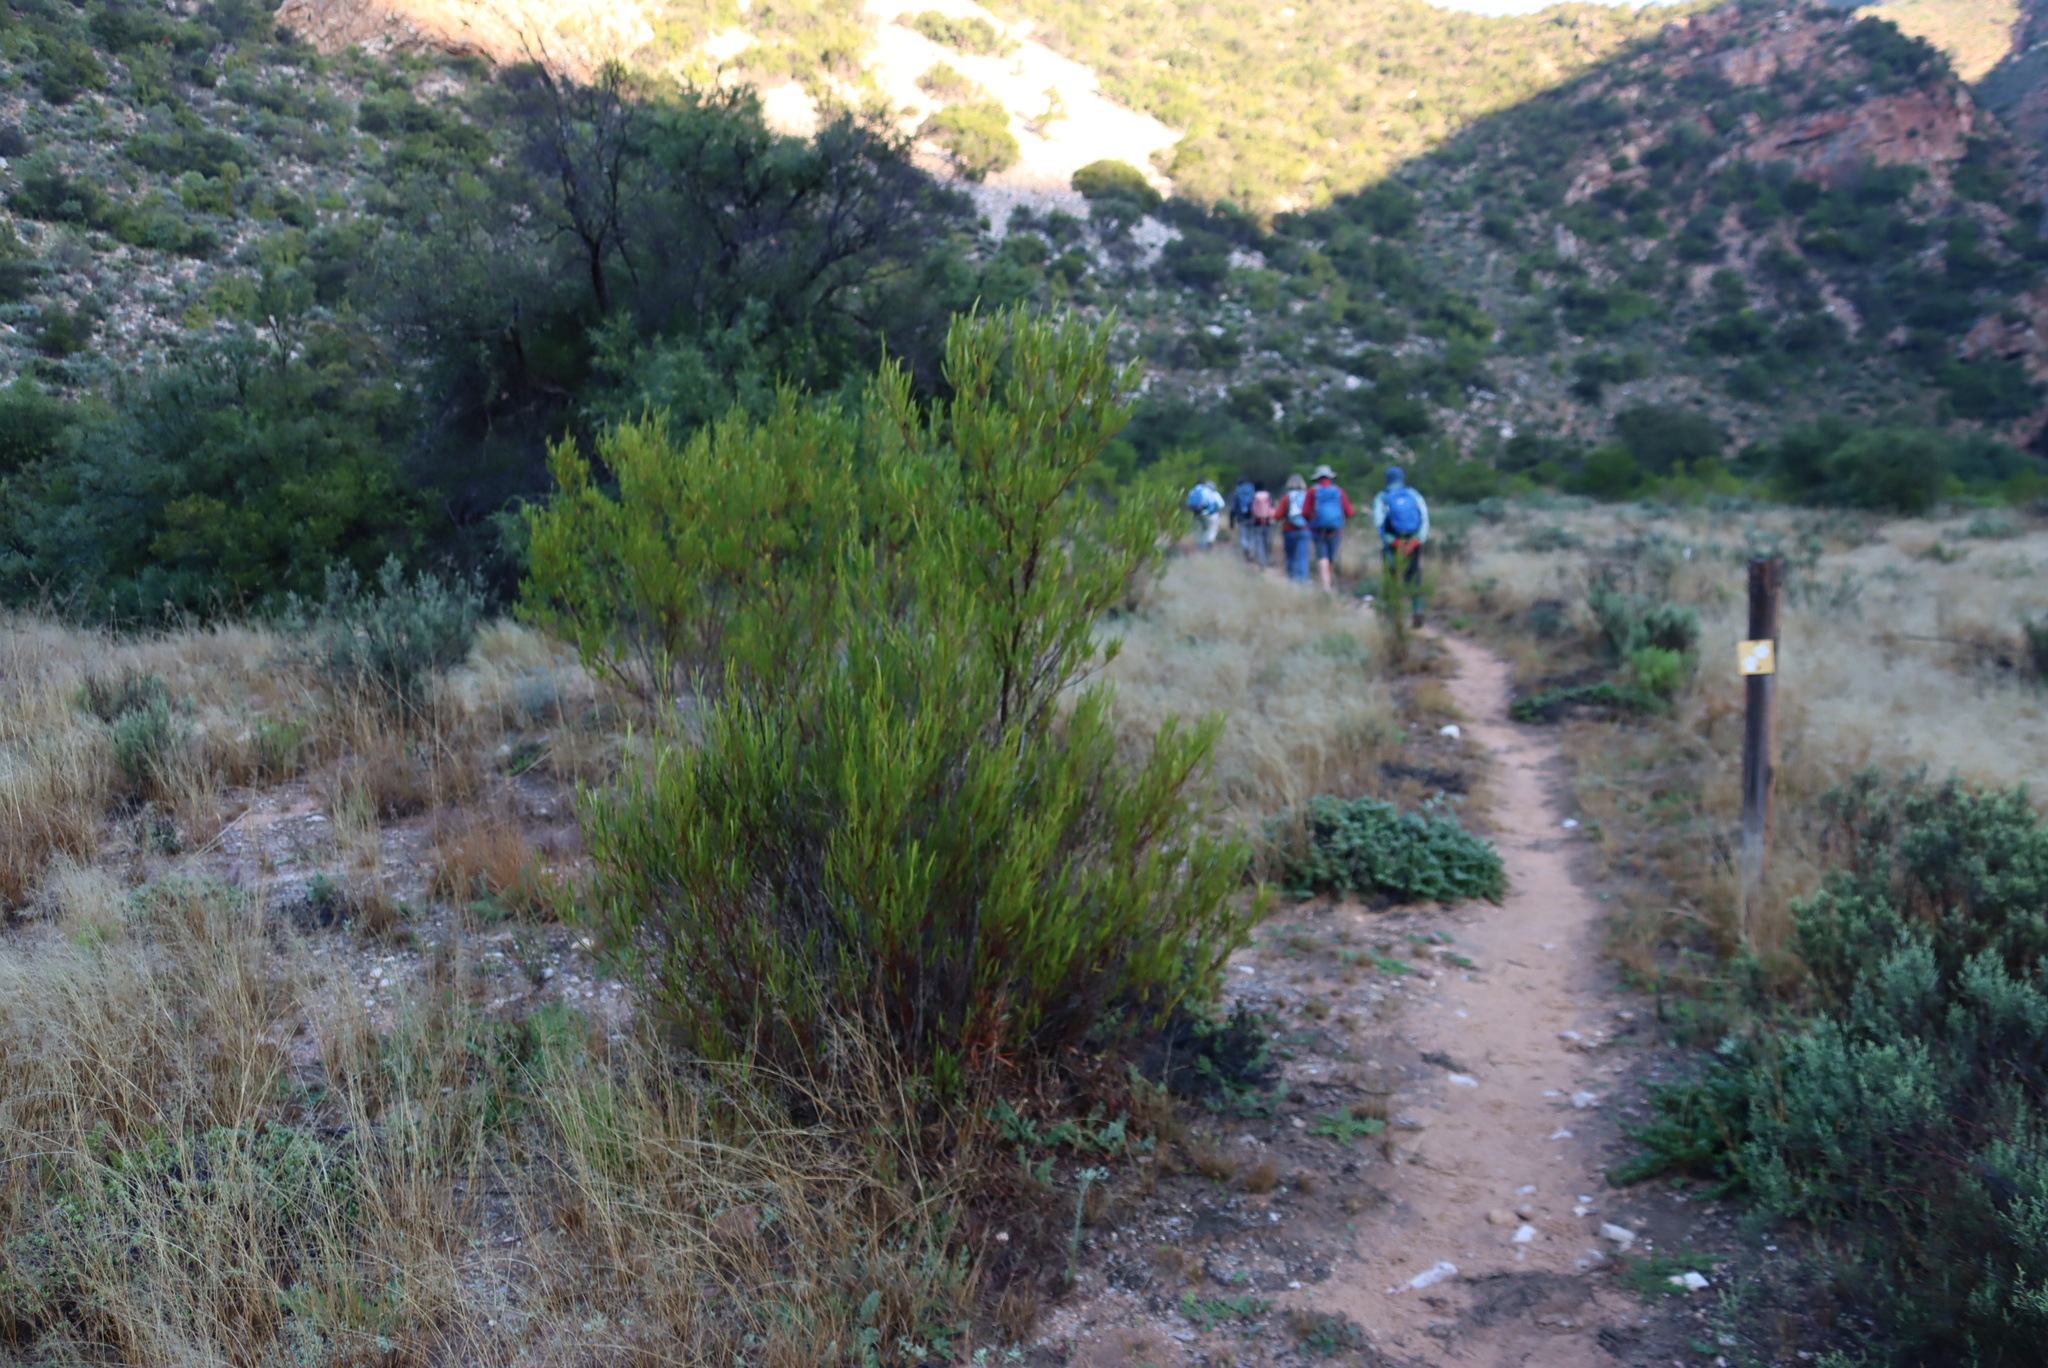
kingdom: Plantae
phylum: Tracheophyta
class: Magnoliopsida
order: Sapindales
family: Sapindaceae
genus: Dodonaea
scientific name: Dodonaea viscosa
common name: Hopbush
